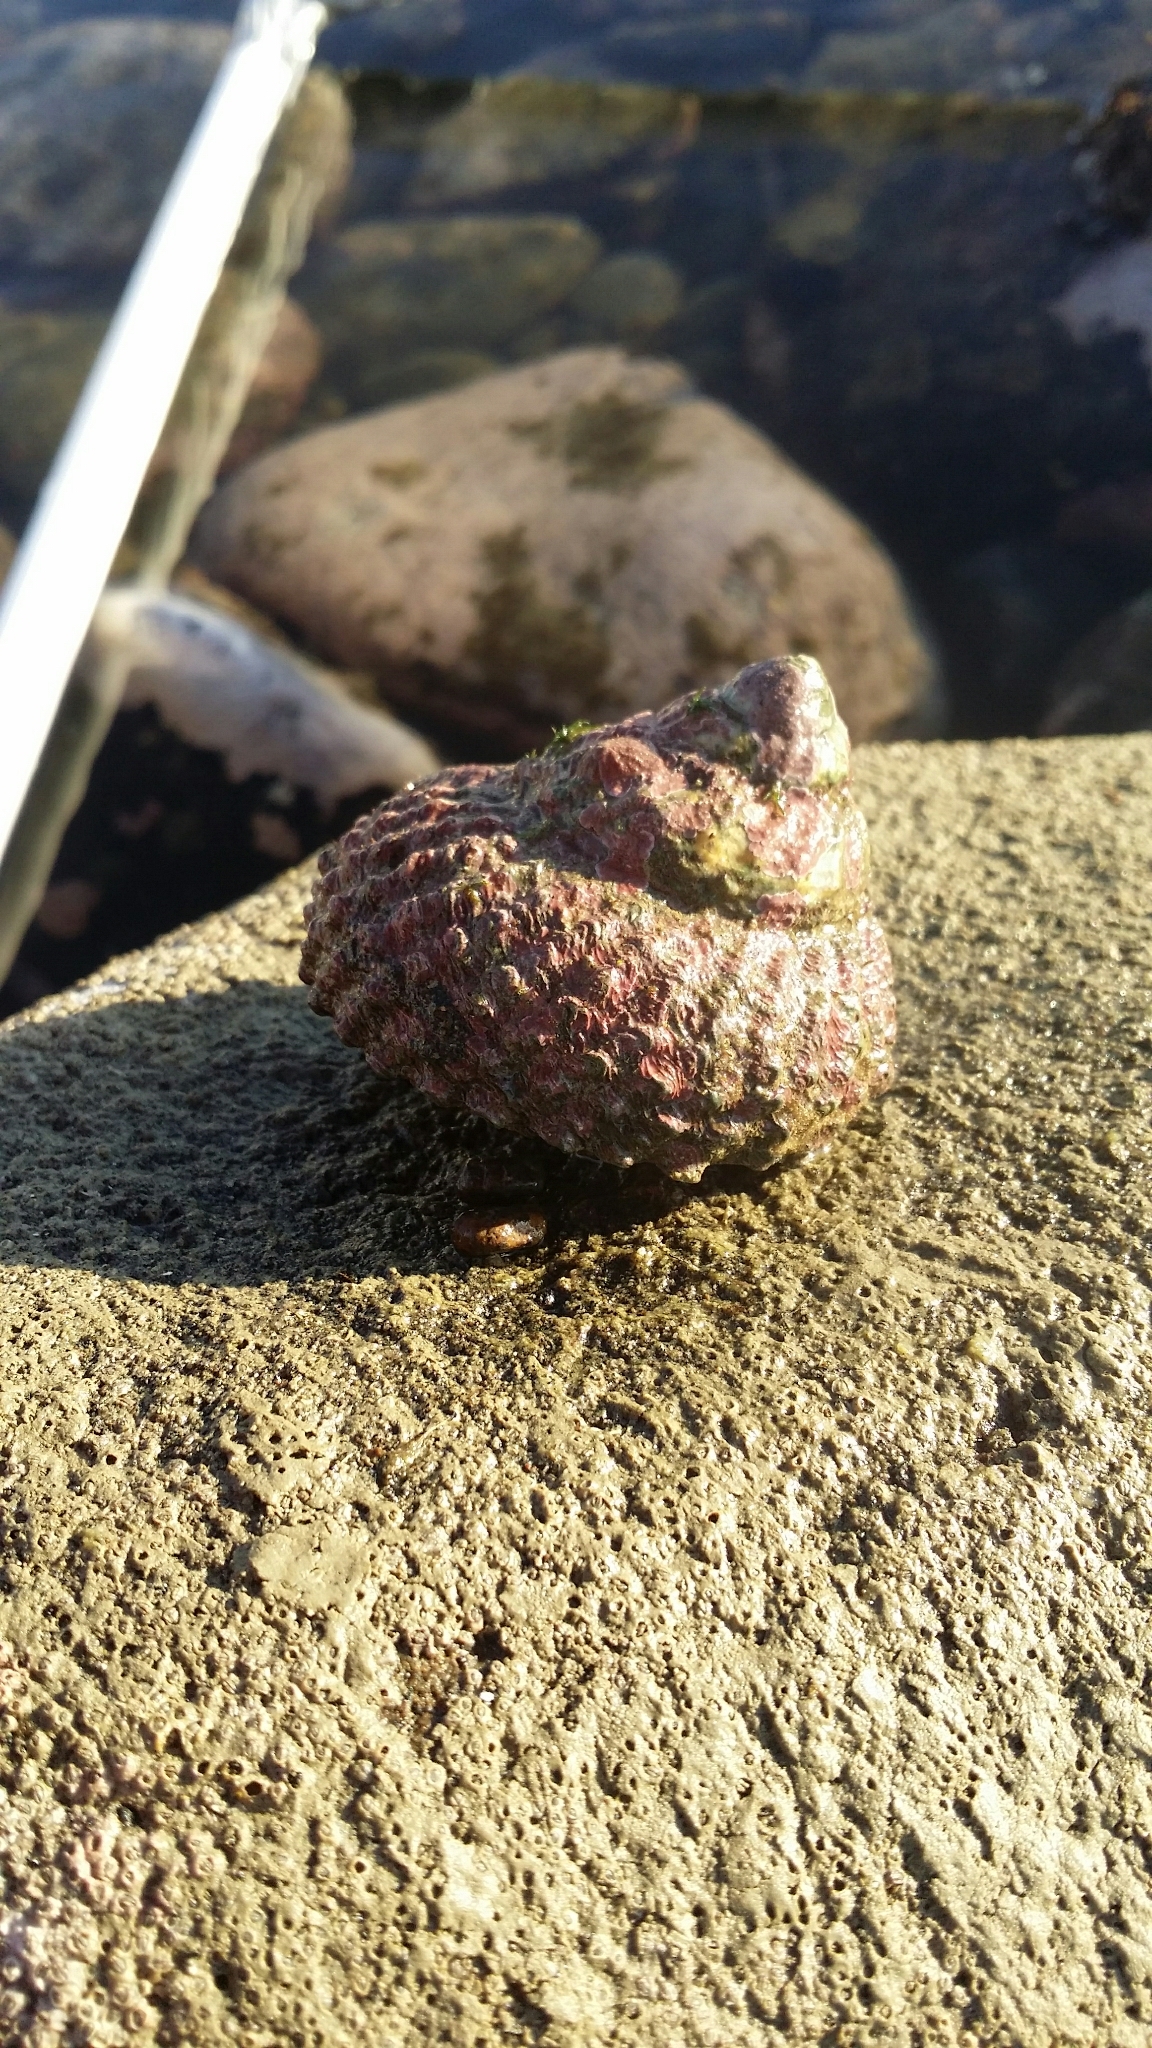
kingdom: Animalia
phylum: Mollusca
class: Gastropoda
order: Trochida
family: Turbinidae
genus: Cookia
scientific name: Cookia sulcata
